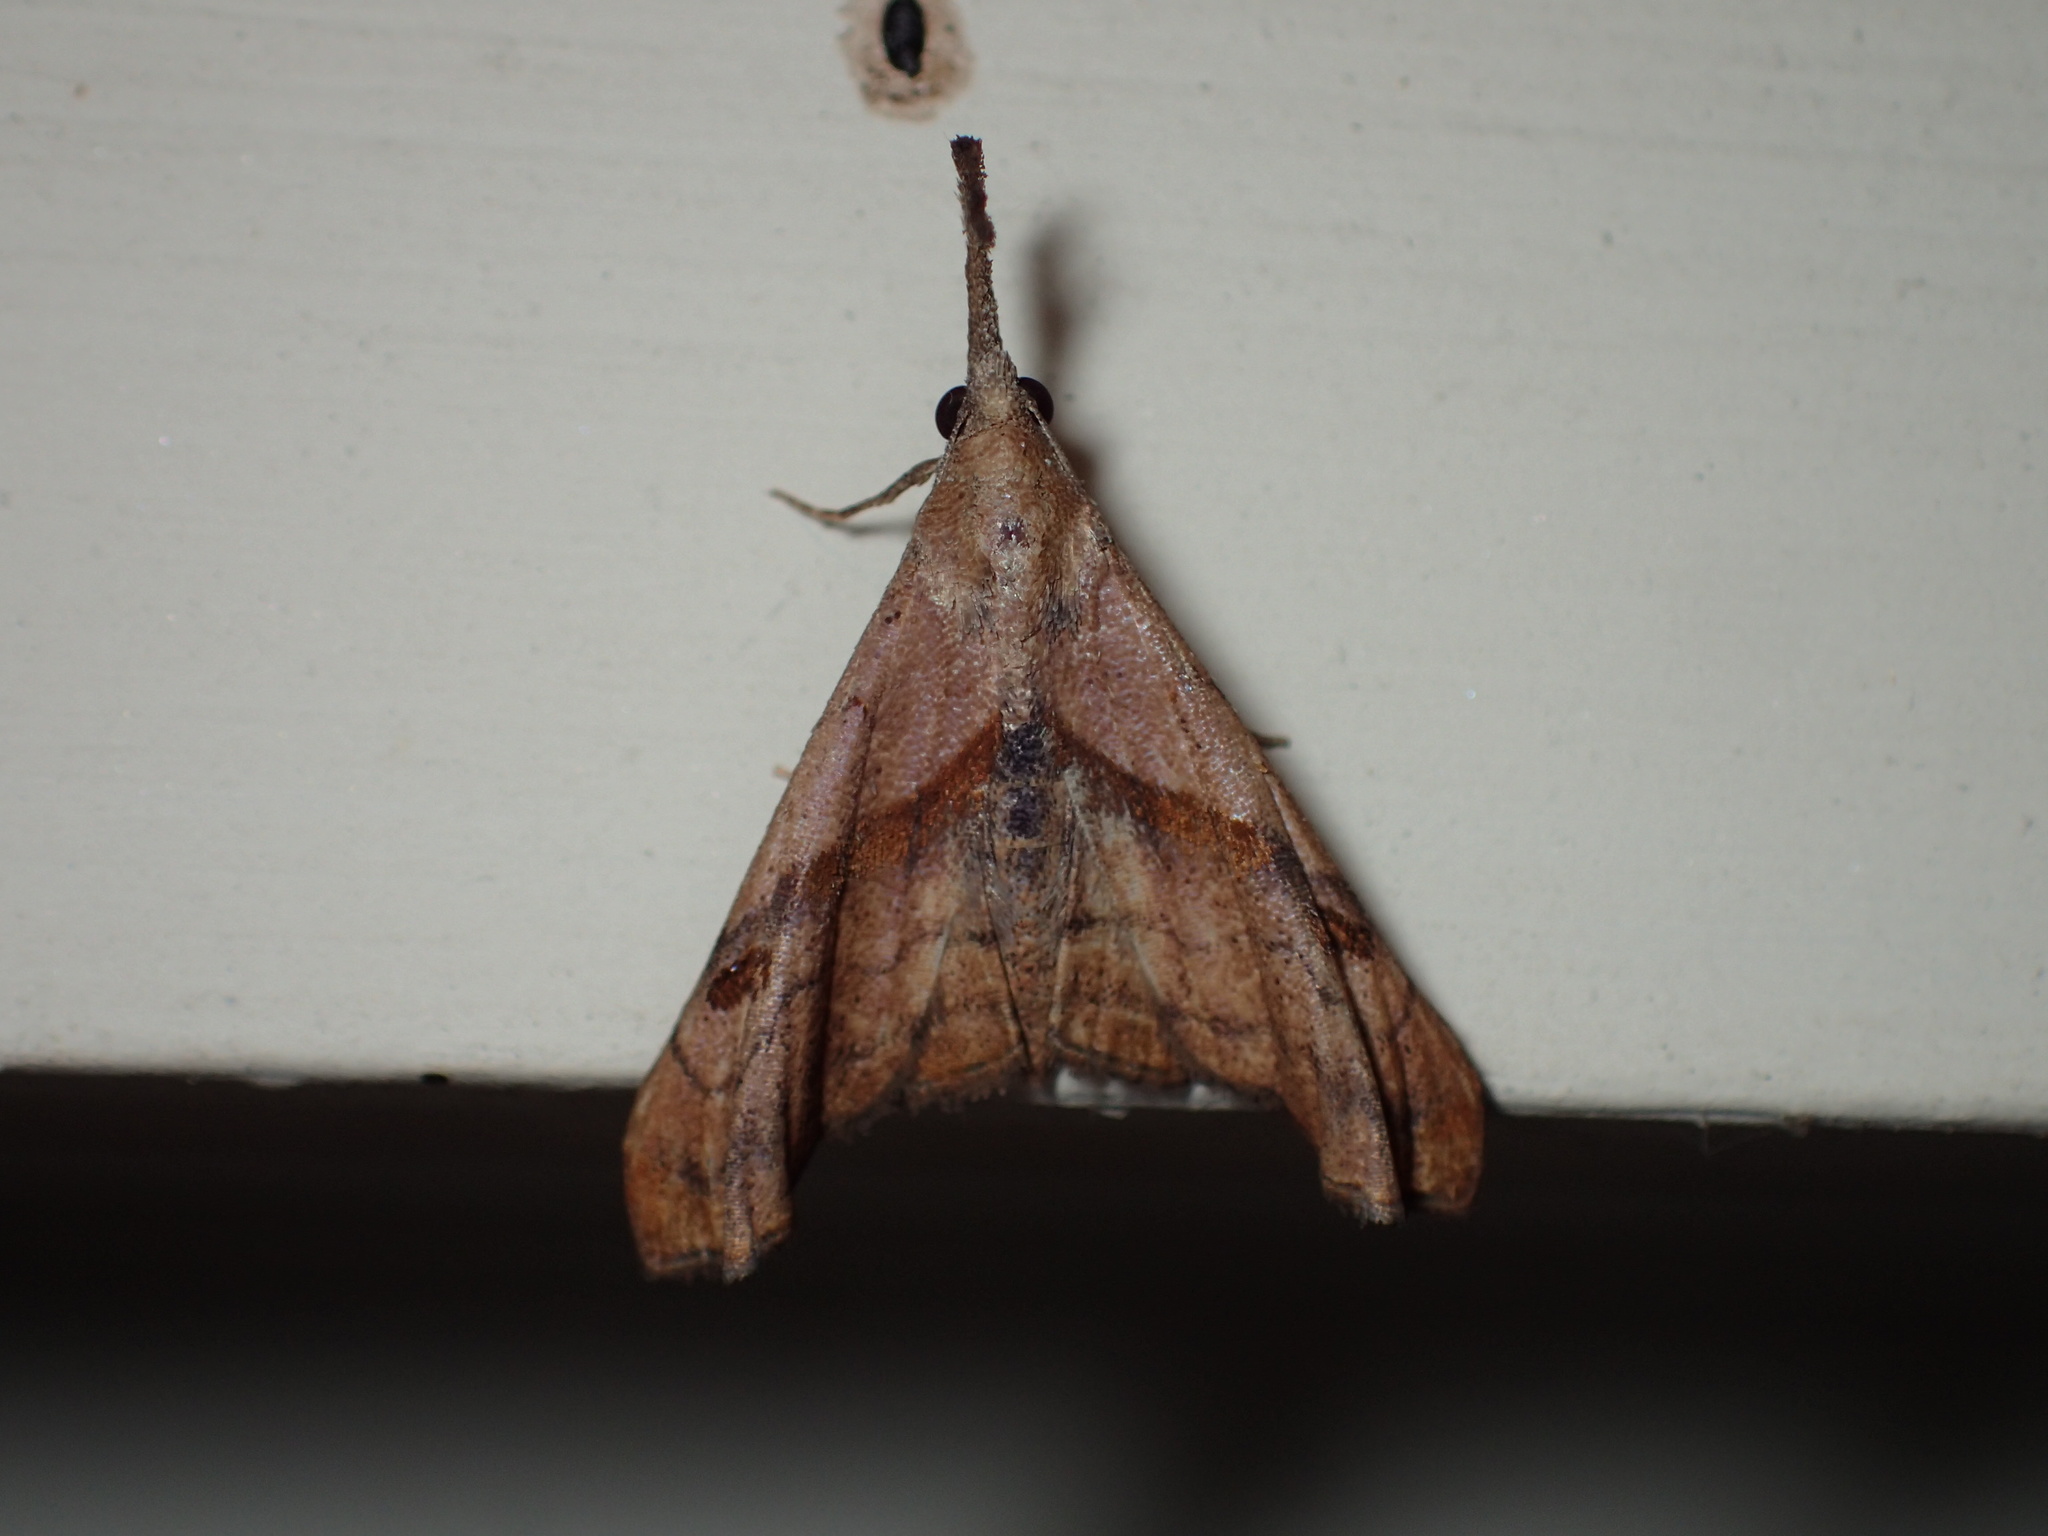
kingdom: Animalia
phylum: Arthropoda
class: Insecta
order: Lepidoptera
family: Erebidae
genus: Palthis
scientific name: Palthis angulalis
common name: Dark-spotted palthis moth
